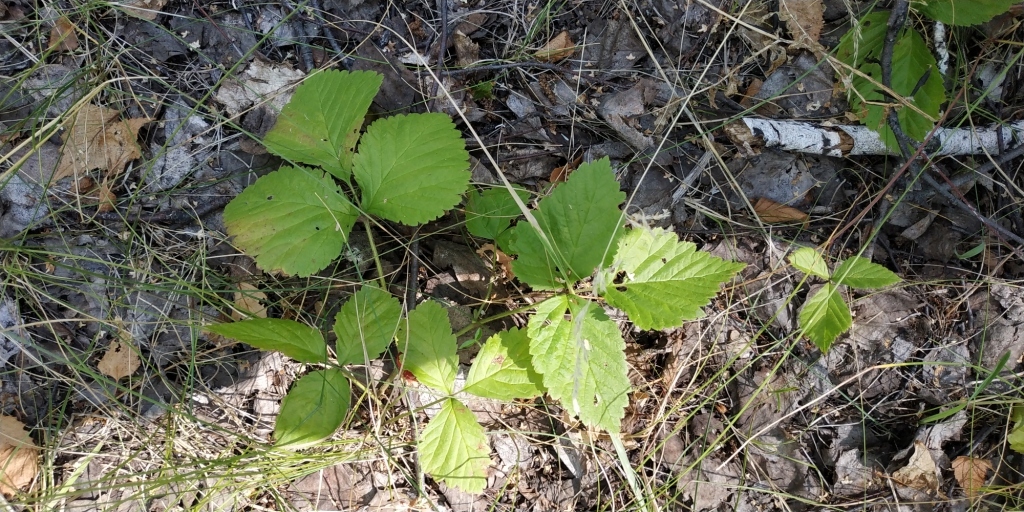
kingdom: Plantae
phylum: Tracheophyta
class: Magnoliopsida
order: Rosales
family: Rosaceae
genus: Rubus
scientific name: Rubus saxatilis
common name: Stone bramble
